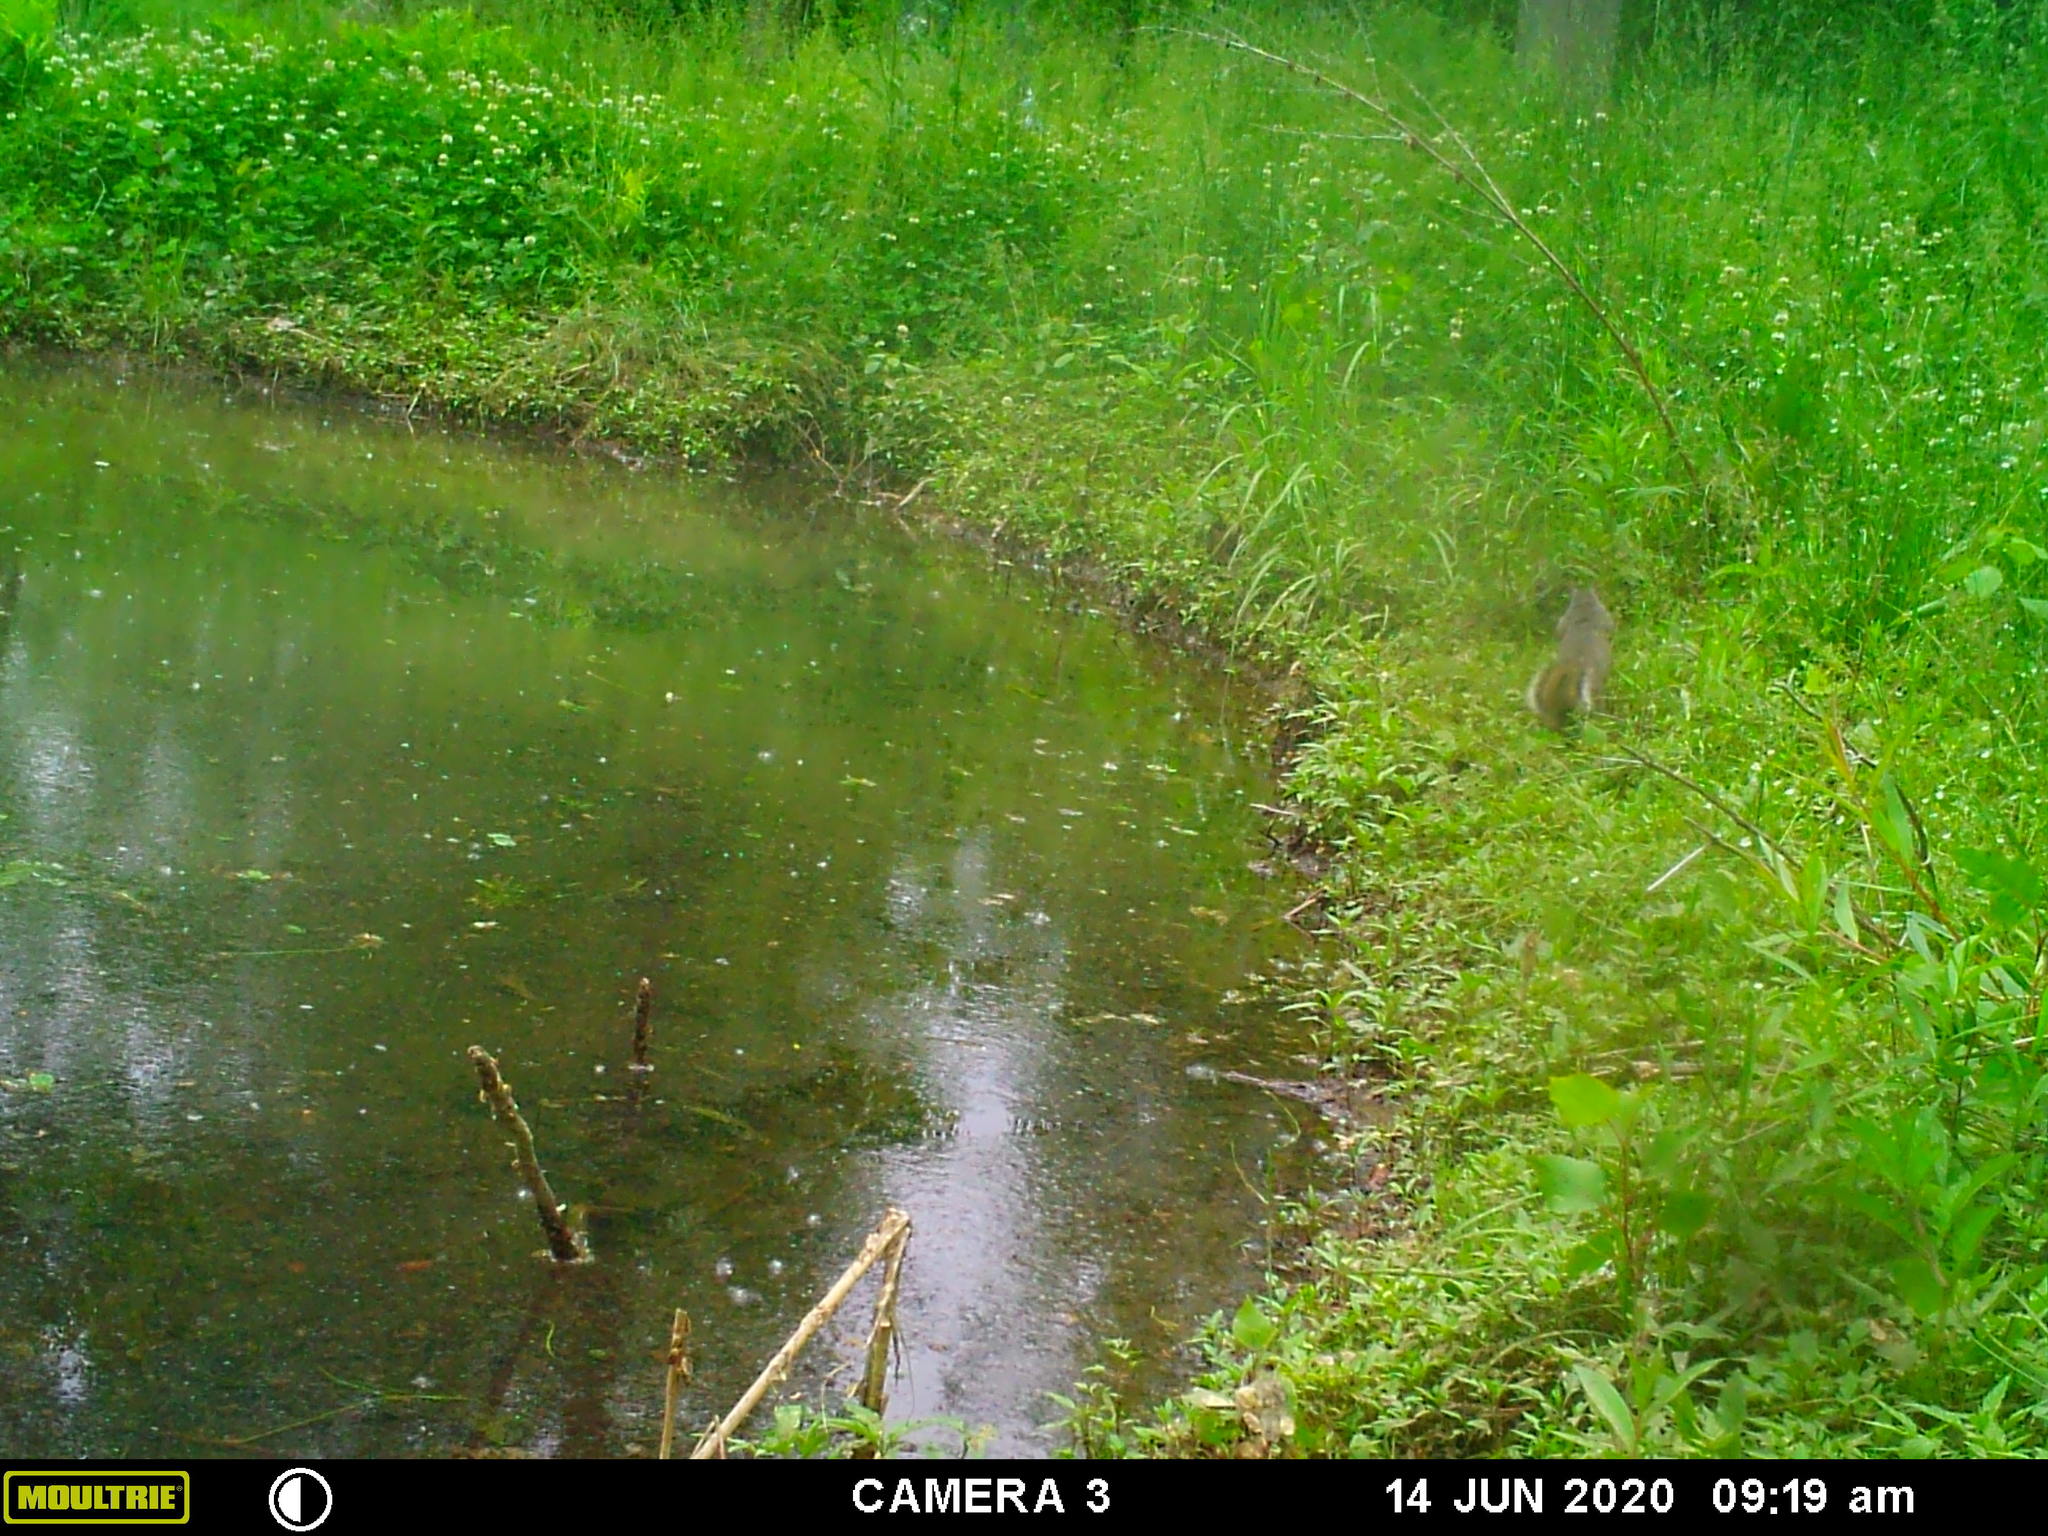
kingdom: Animalia
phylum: Chordata
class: Mammalia
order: Rodentia
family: Sciuridae
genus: Sciurus
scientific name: Sciurus carolinensis
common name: Eastern gray squirrel
